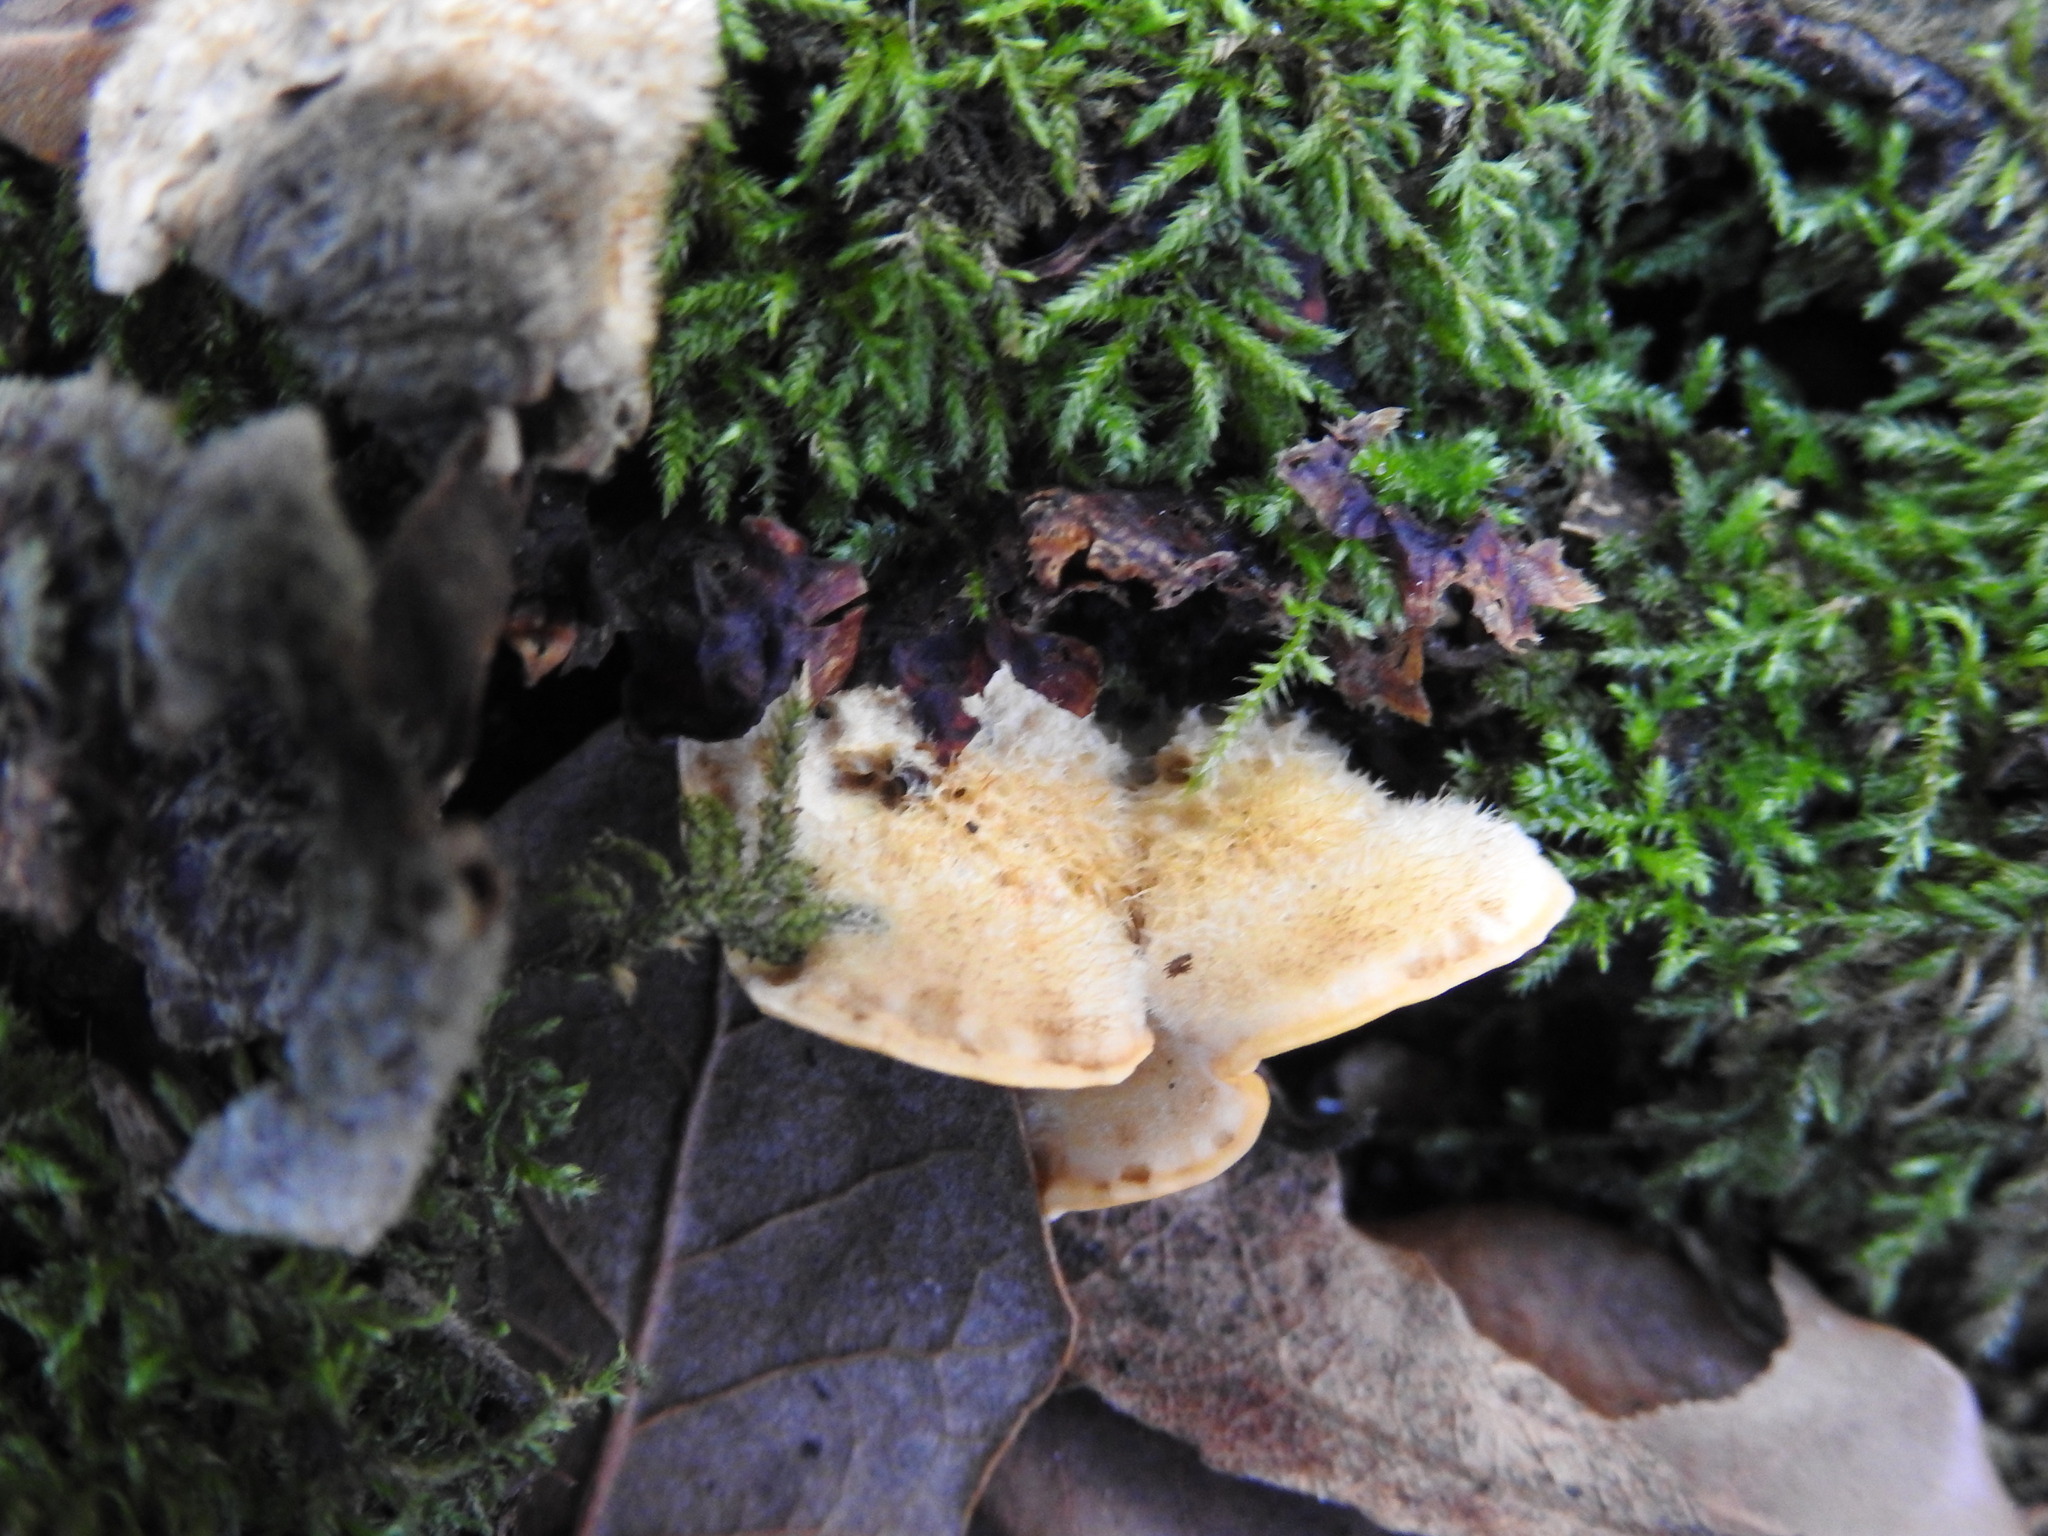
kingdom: Fungi
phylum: Basidiomycota
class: Agaricomycetes
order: Russulales
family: Stereaceae
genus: Stereum
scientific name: Stereum hirsutum
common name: Hairy curtain crust
